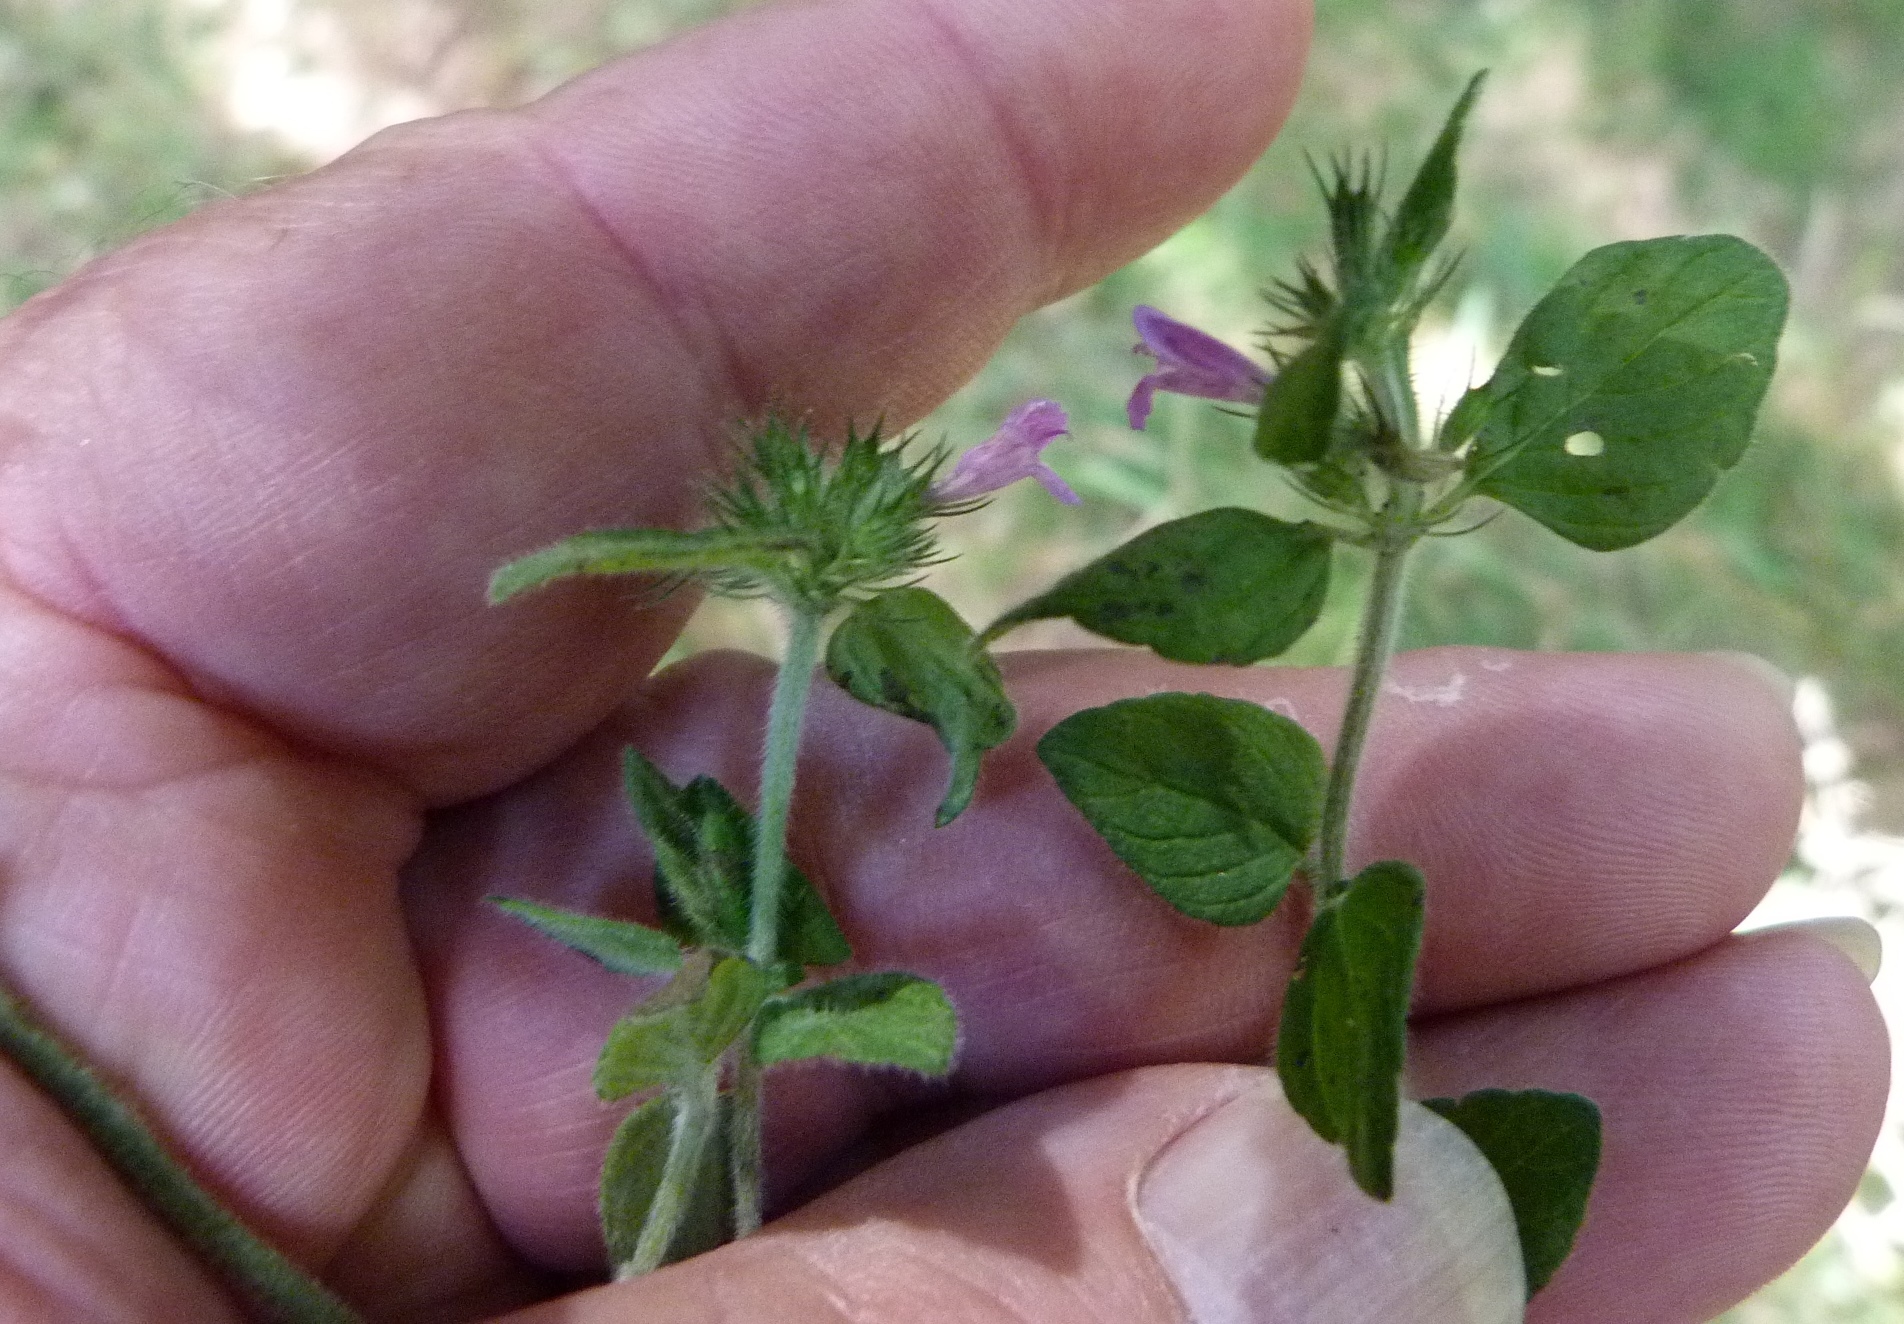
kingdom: Plantae
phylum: Tracheophyta
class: Magnoliopsida
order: Lamiales
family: Lamiaceae
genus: Clinopodium
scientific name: Clinopodium vulgare
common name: Wild basil
